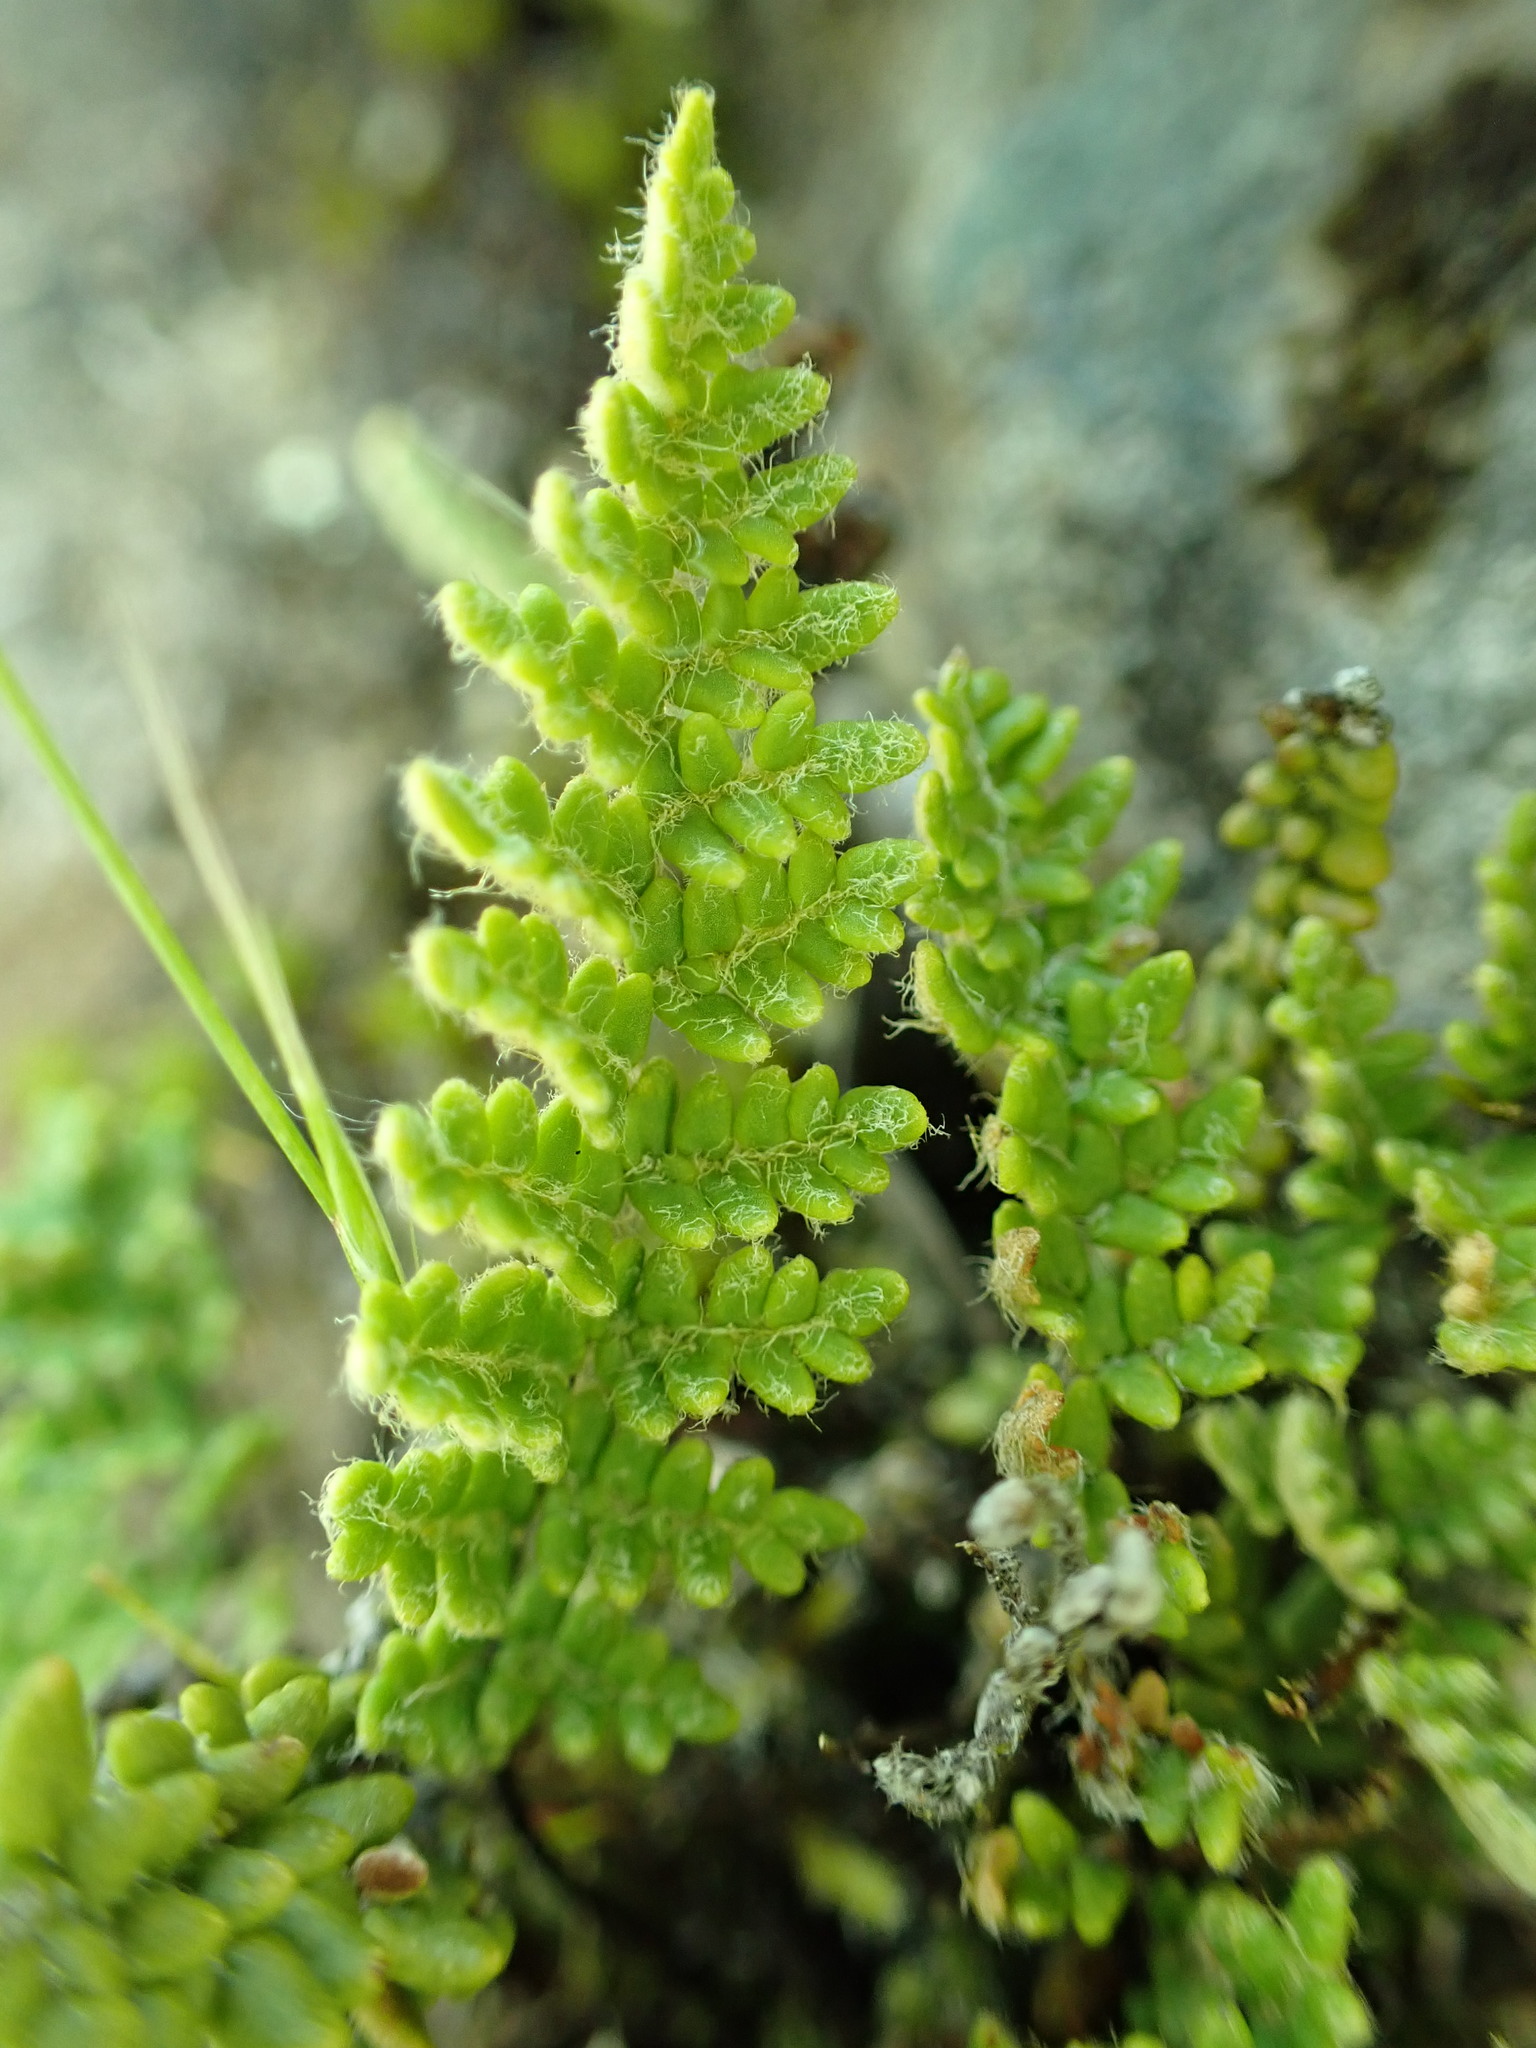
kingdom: Plantae
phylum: Tracheophyta
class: Polypodiopsida
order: Polypodiales
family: Pteridaceae
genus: Myriopteris
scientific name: Myriopteris gracillima
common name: Lace fern
